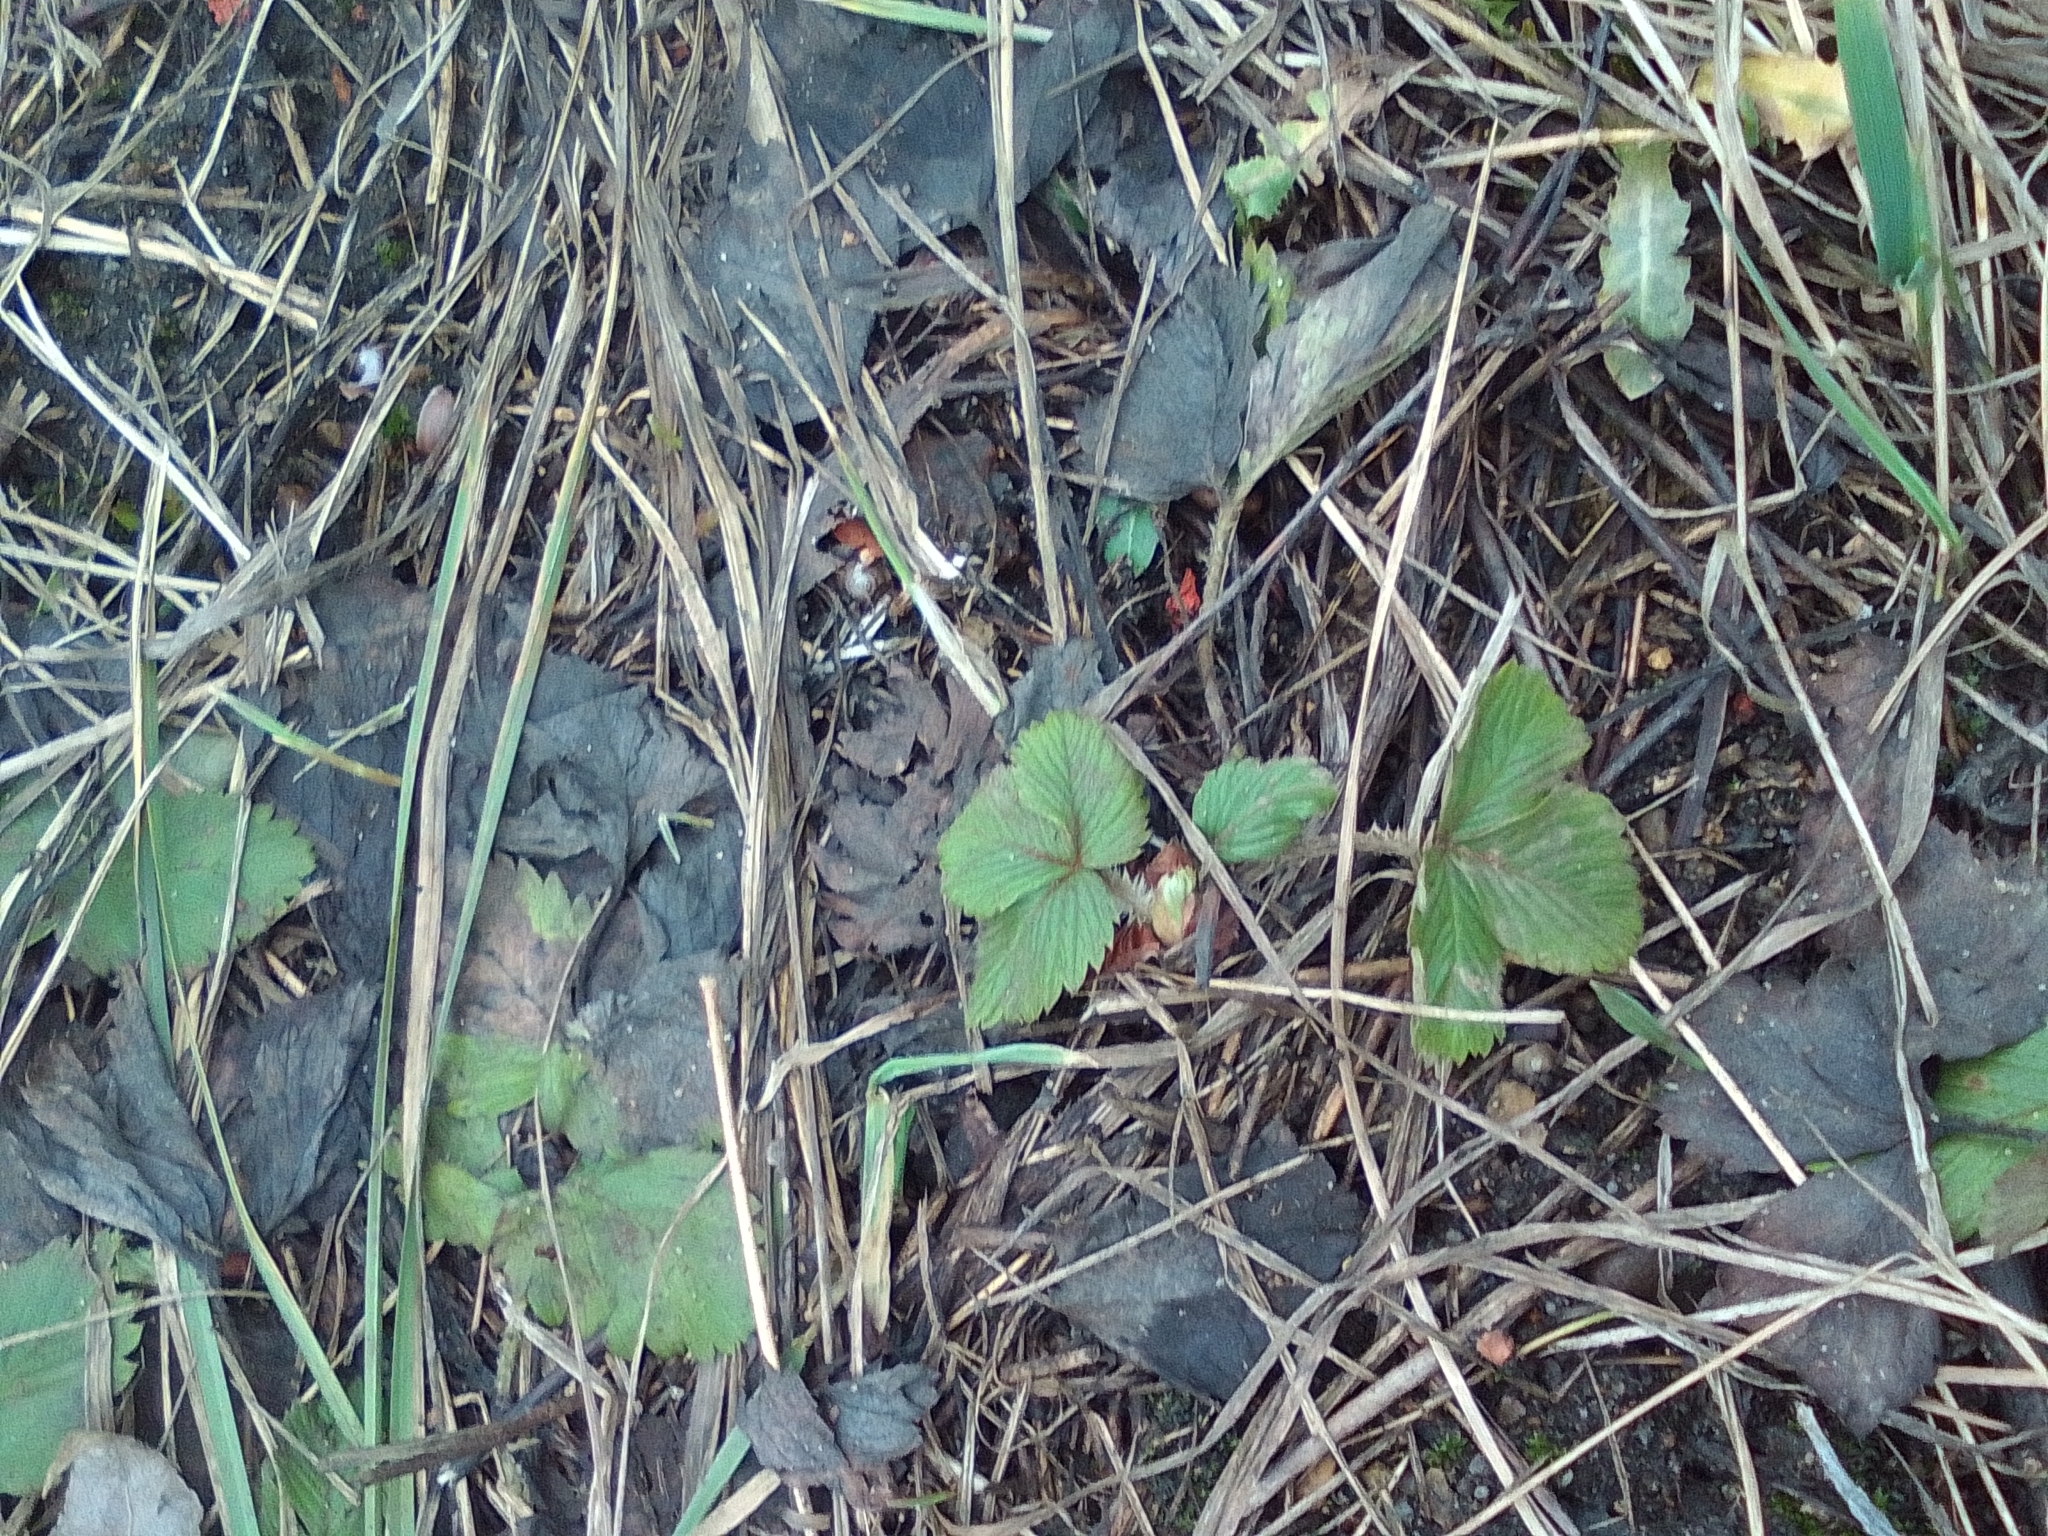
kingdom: Plantae
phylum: Tracheophyta
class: Magnoliopsida
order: Rosales
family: Rosaceae
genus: Fragaria
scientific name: Fragaria vesca
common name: Wild strawberry
